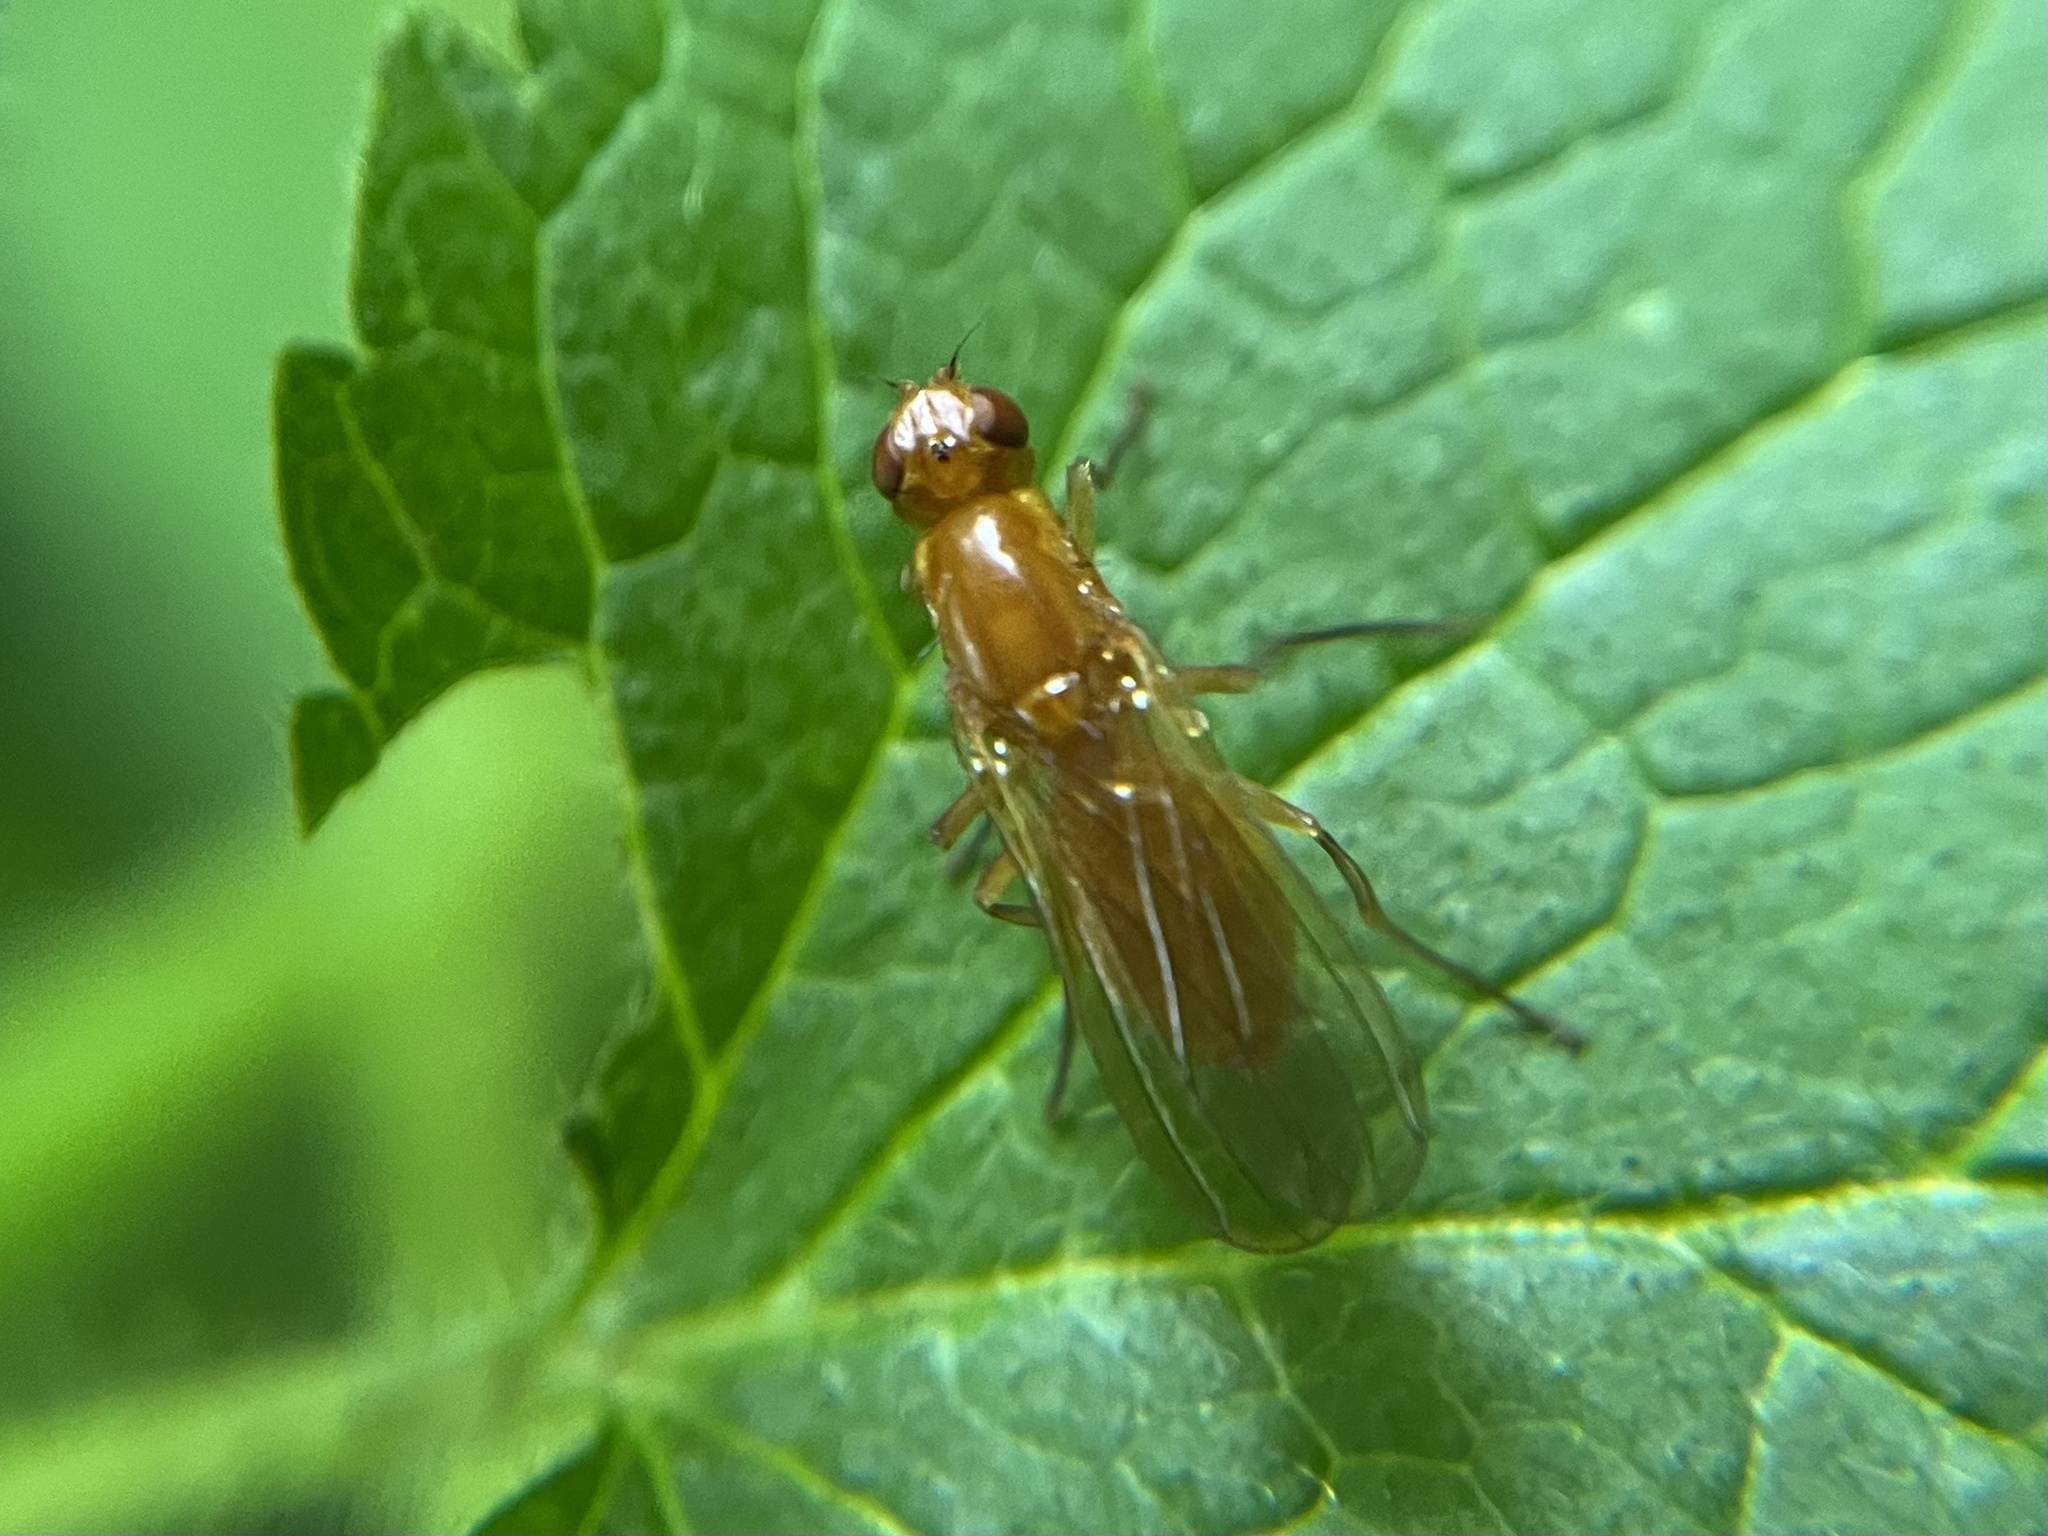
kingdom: Animalia
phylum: Arthropoda
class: Insecta
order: Diptera
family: Psilidae
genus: Psila
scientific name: Psila fimetaria
